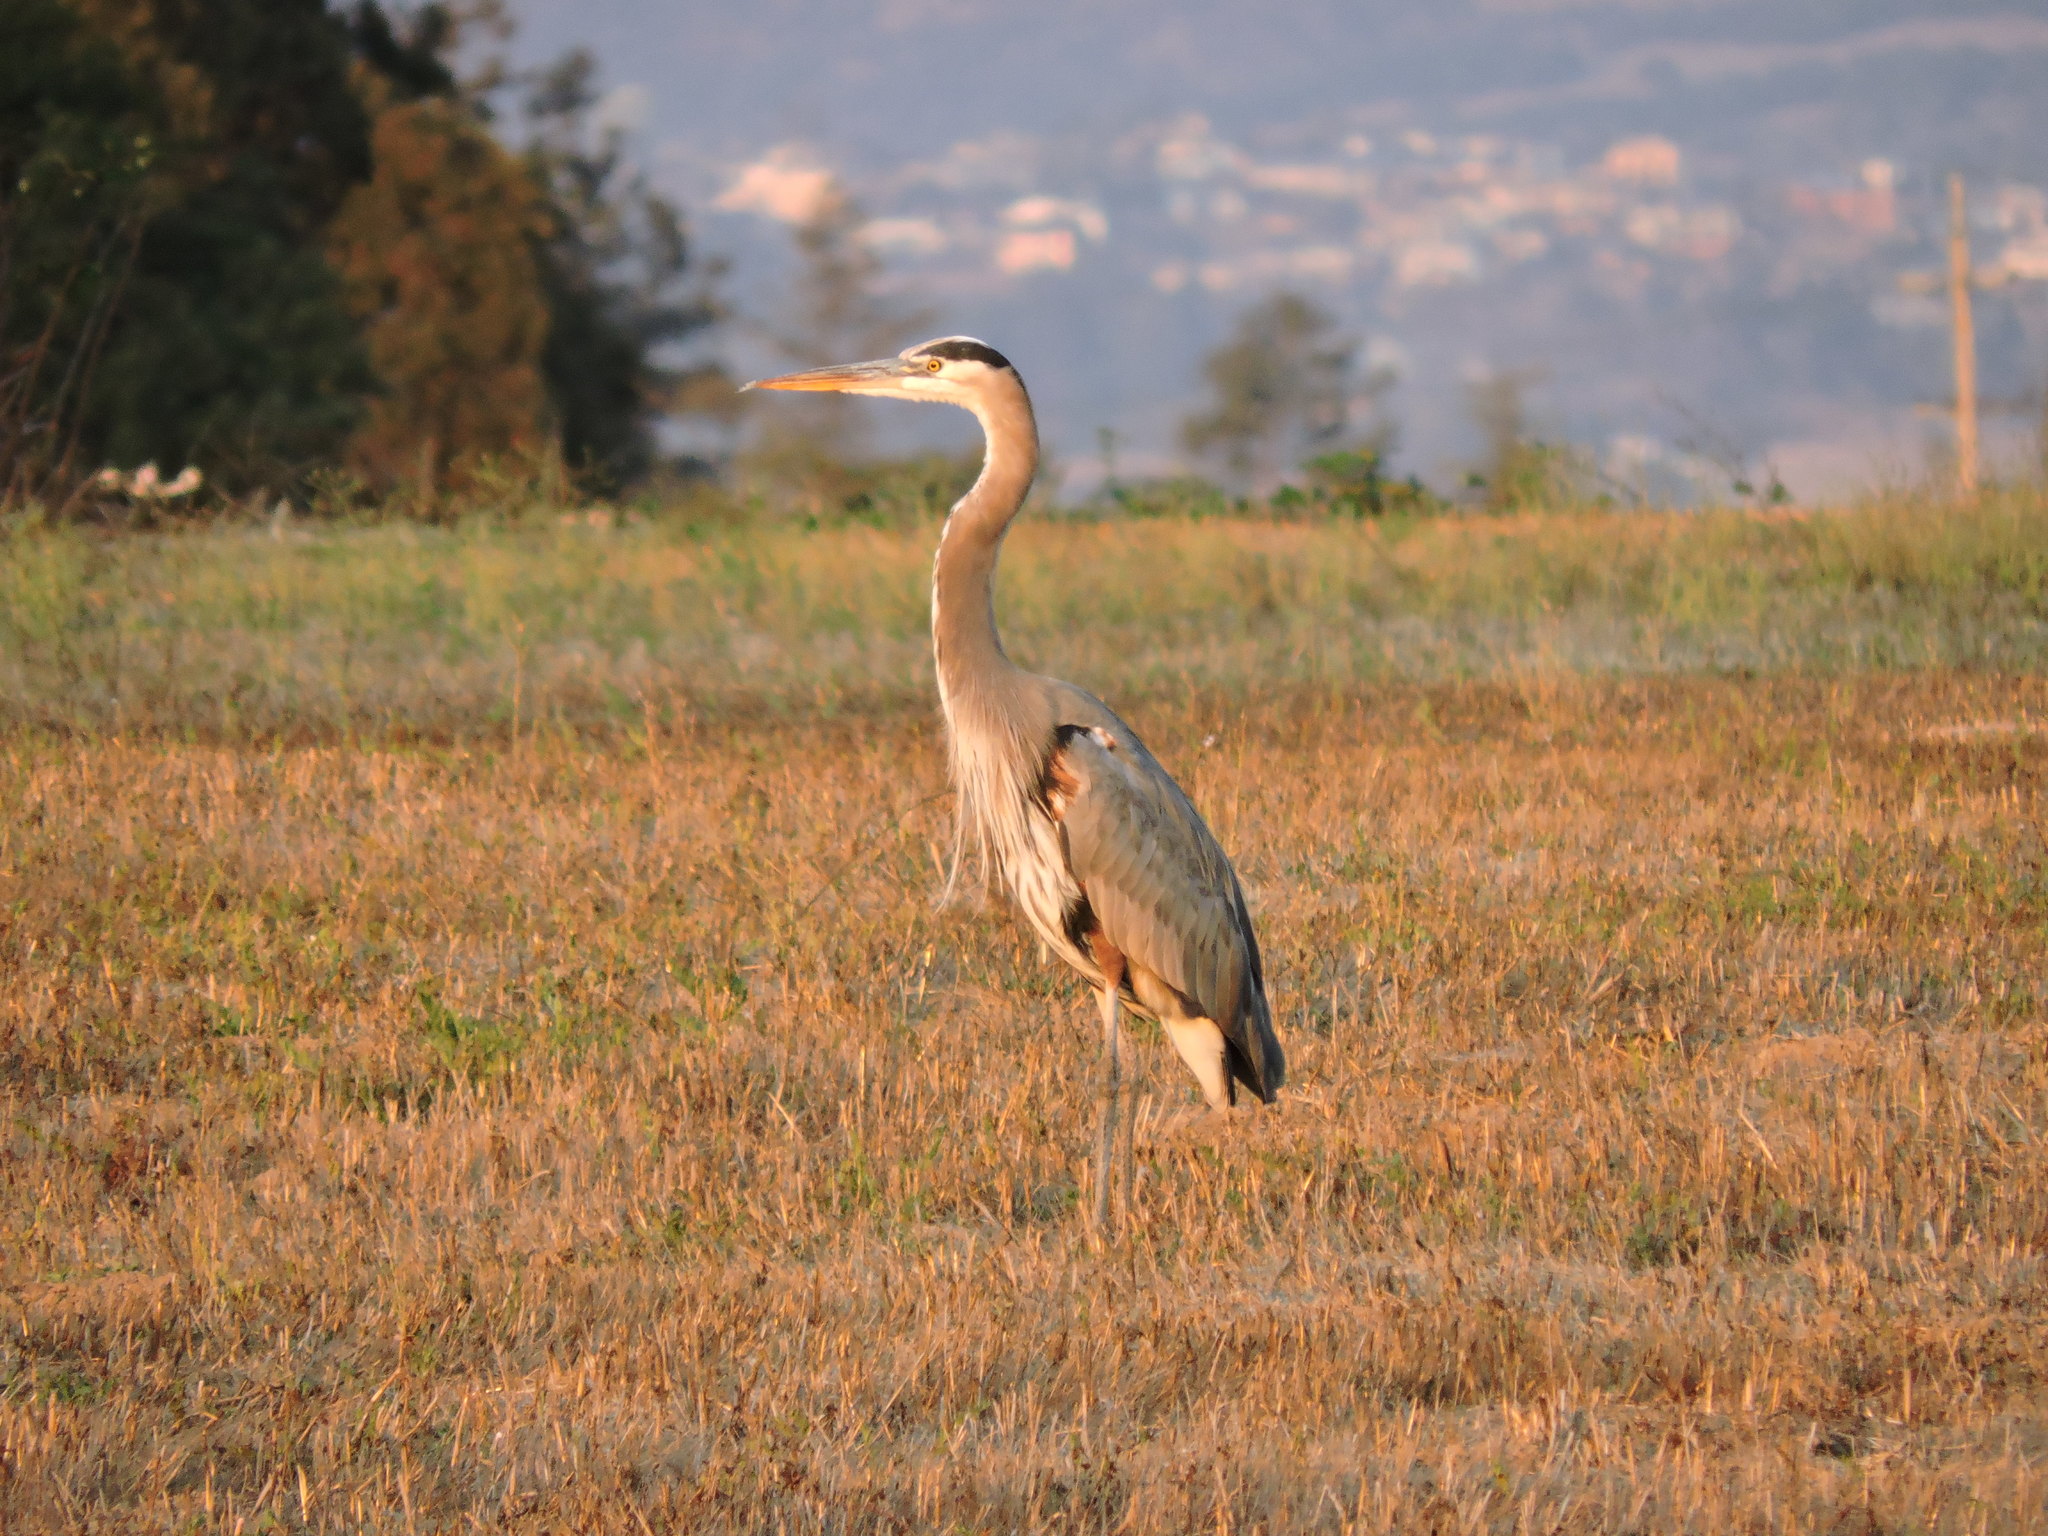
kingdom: Animalia
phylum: Chordata
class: Aves
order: Pelecaniformes
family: Ardeidae
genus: Ardea
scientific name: Ardea herodias
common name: Great blue heron
